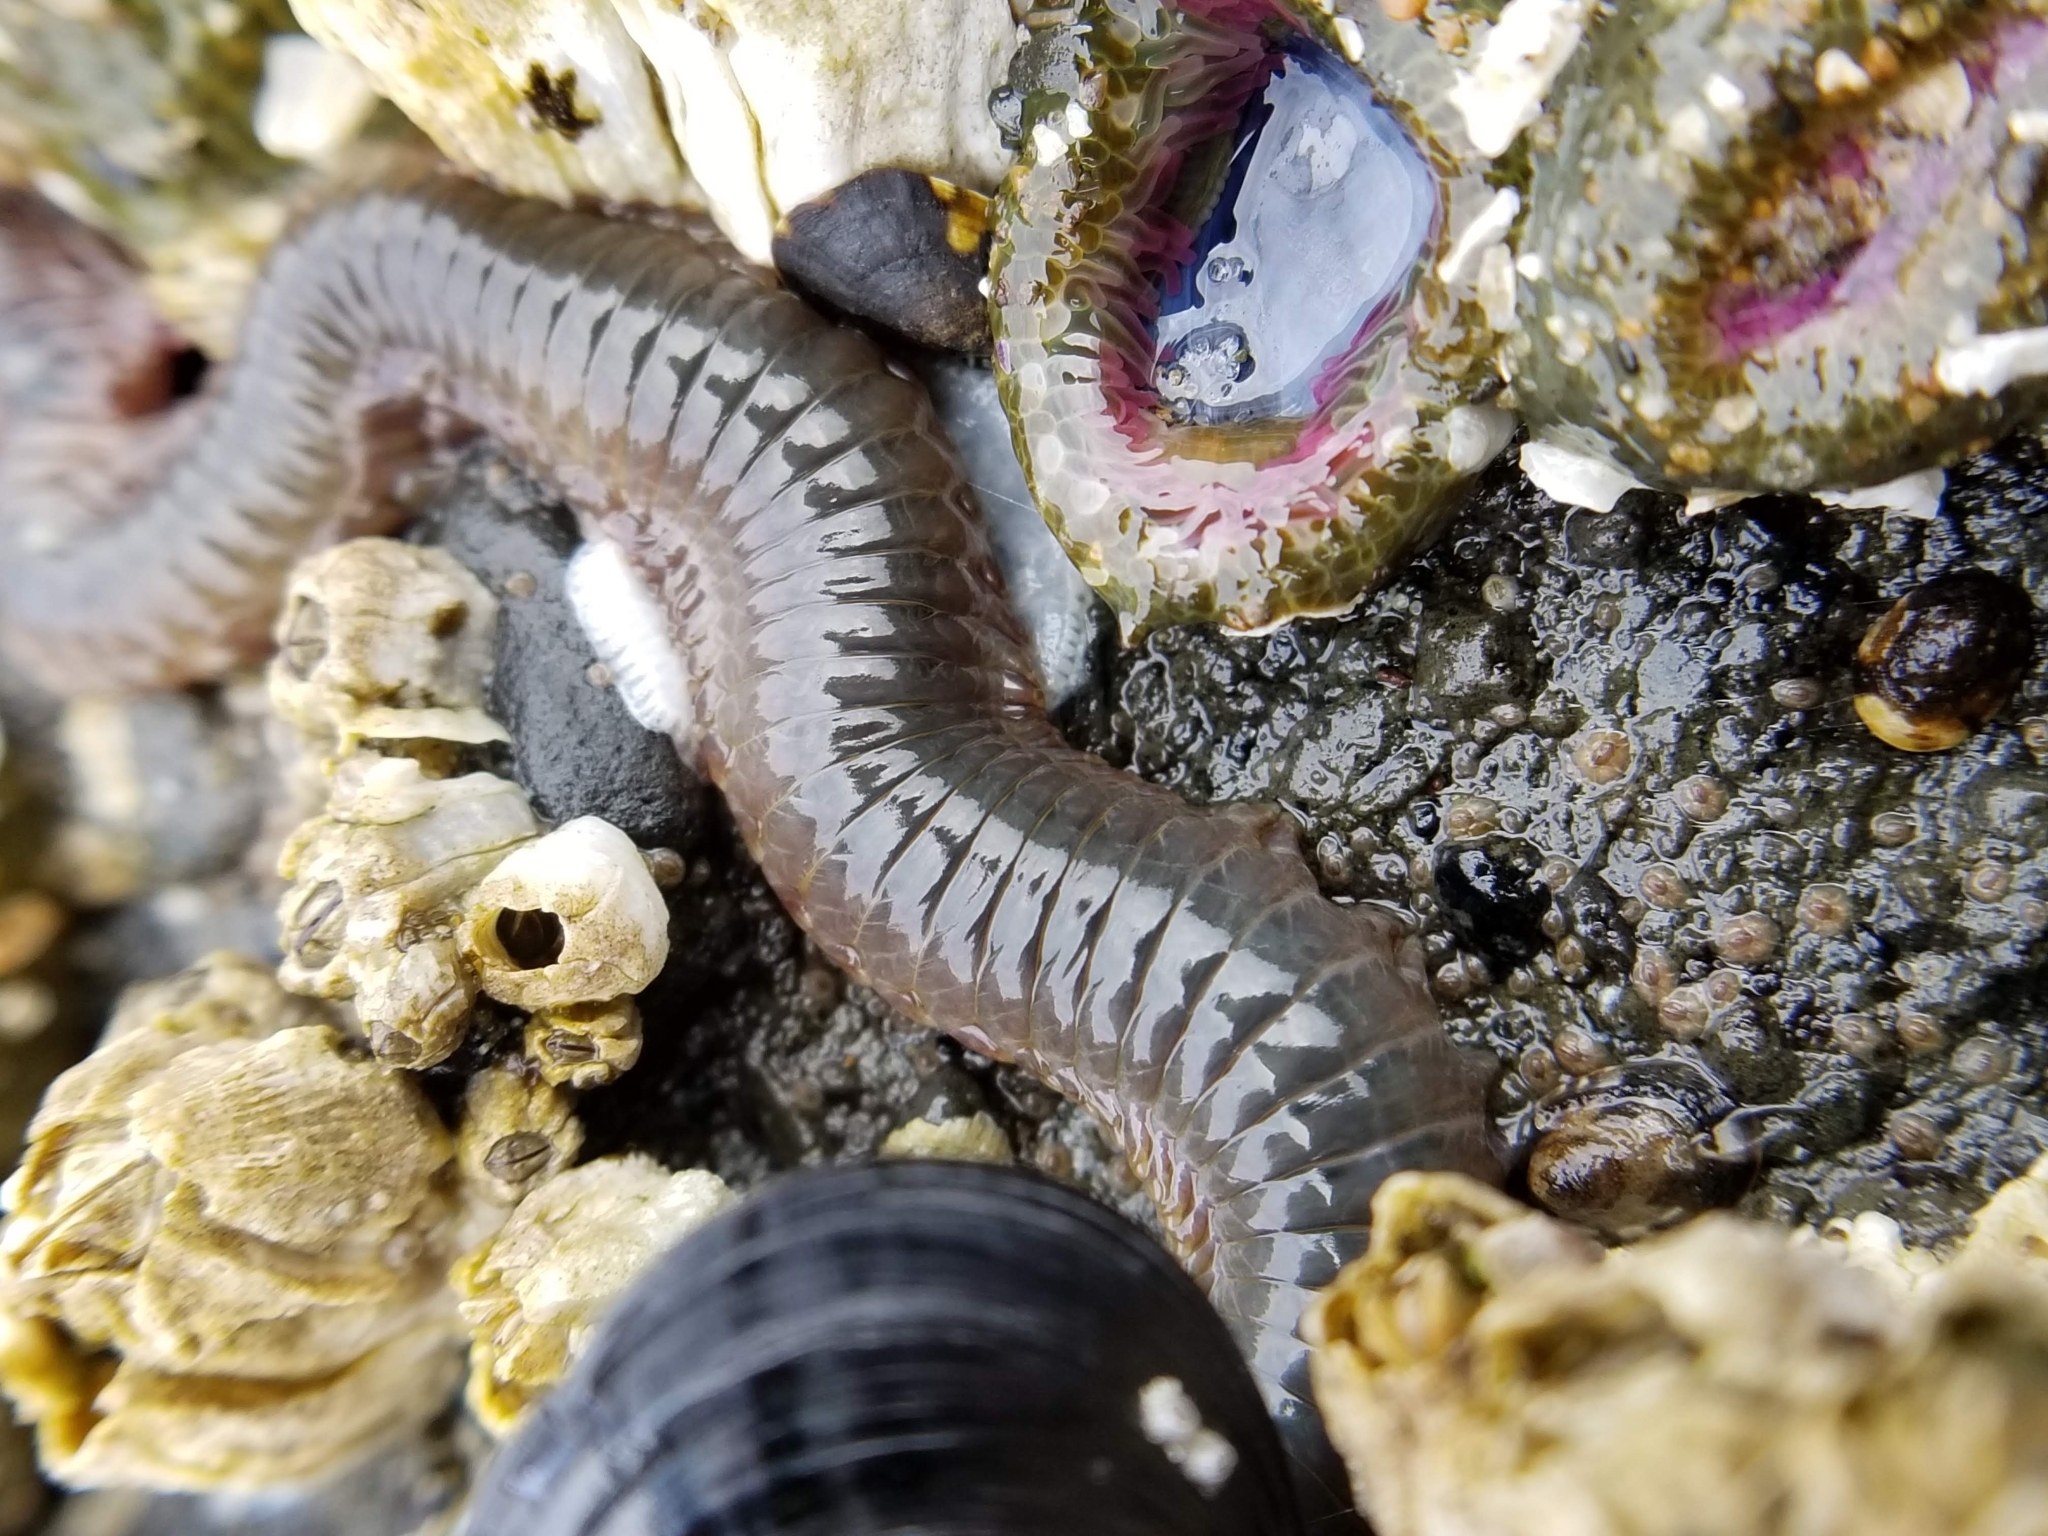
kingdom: Animalia
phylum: Annelida
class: Polychaeta
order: Phyllodocida
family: Nereididae
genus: Nereis
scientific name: Nereis vexillosa
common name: Mussel worm
